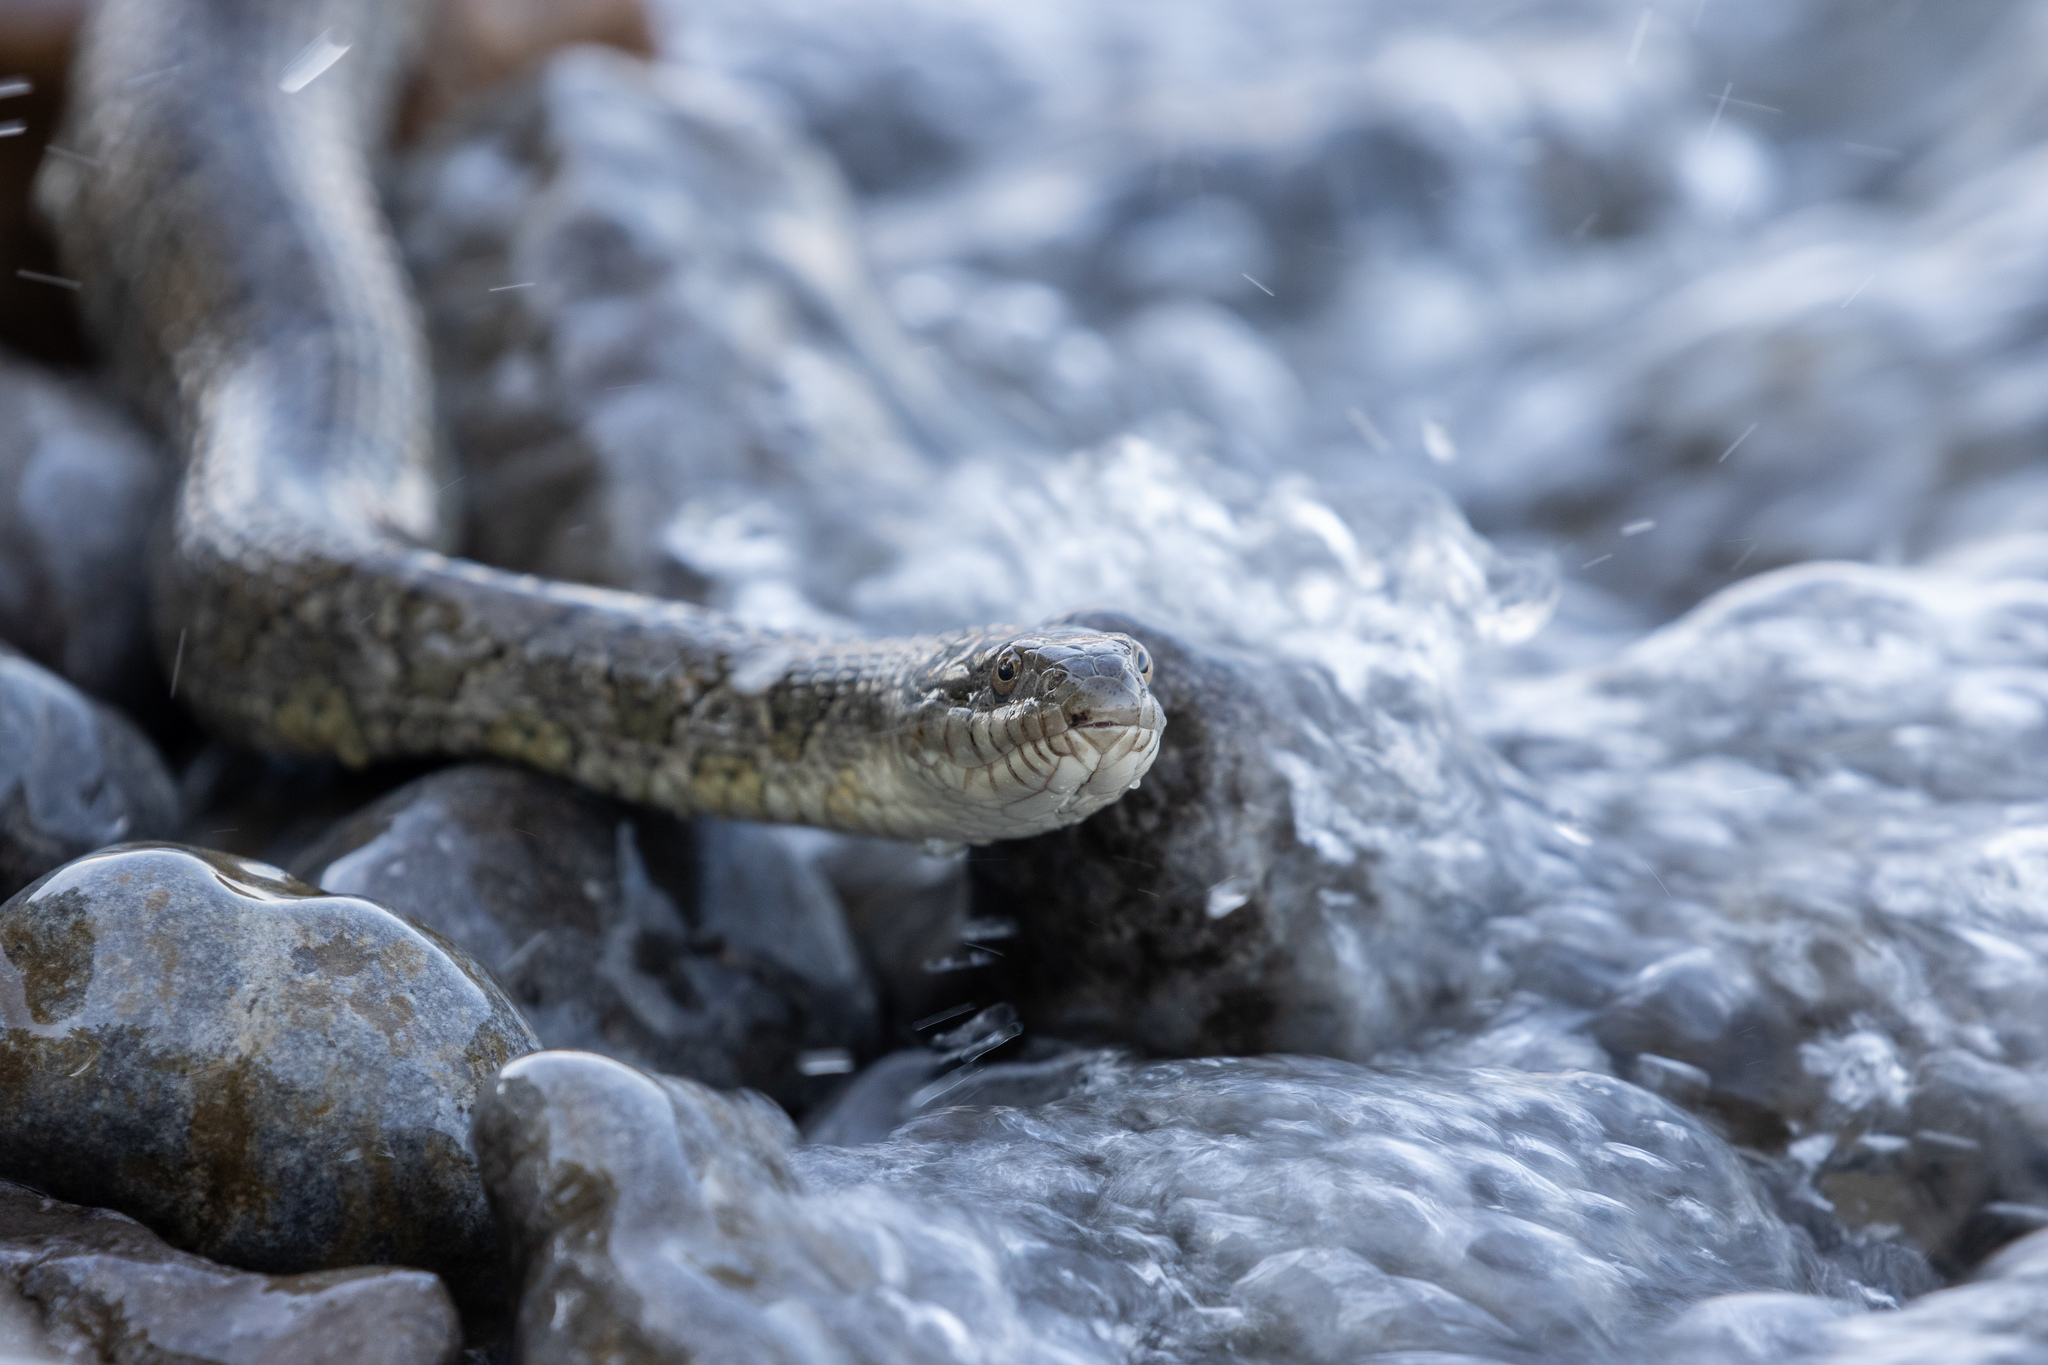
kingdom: Animalia
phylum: Chordata
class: Squamata
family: Colubridae
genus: Nerodia
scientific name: Nerodia sipedon
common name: Northern water snake
